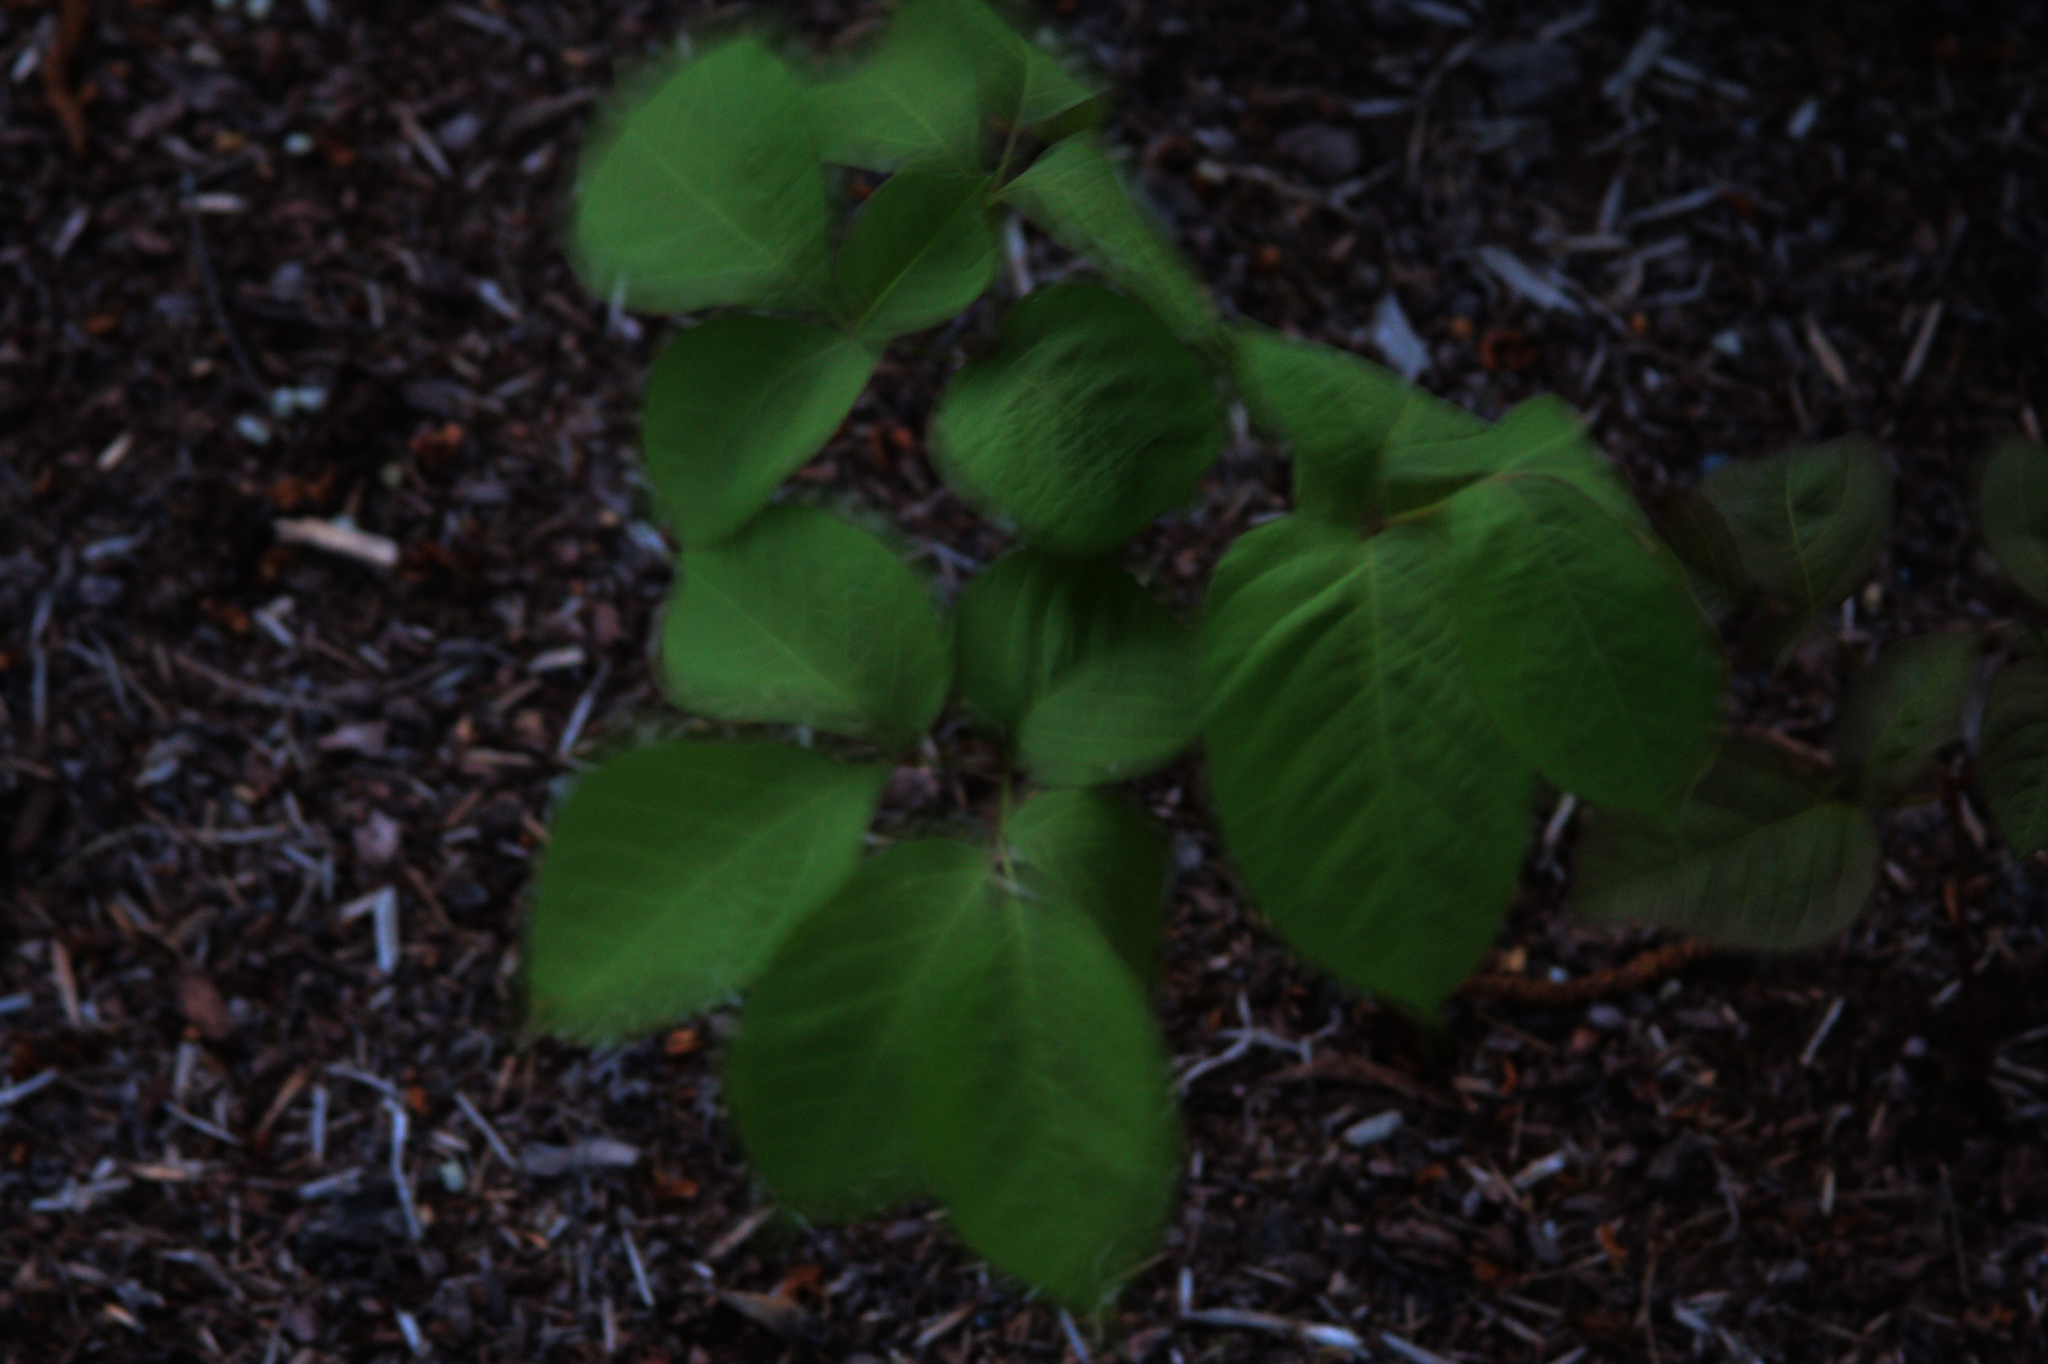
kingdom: Plantae
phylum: Tracheophyta
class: Magnoliopsida
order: Apiales
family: Araliaceae
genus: Aralia
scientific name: Aralia nudicaulis
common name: Wild sarsaparilla
